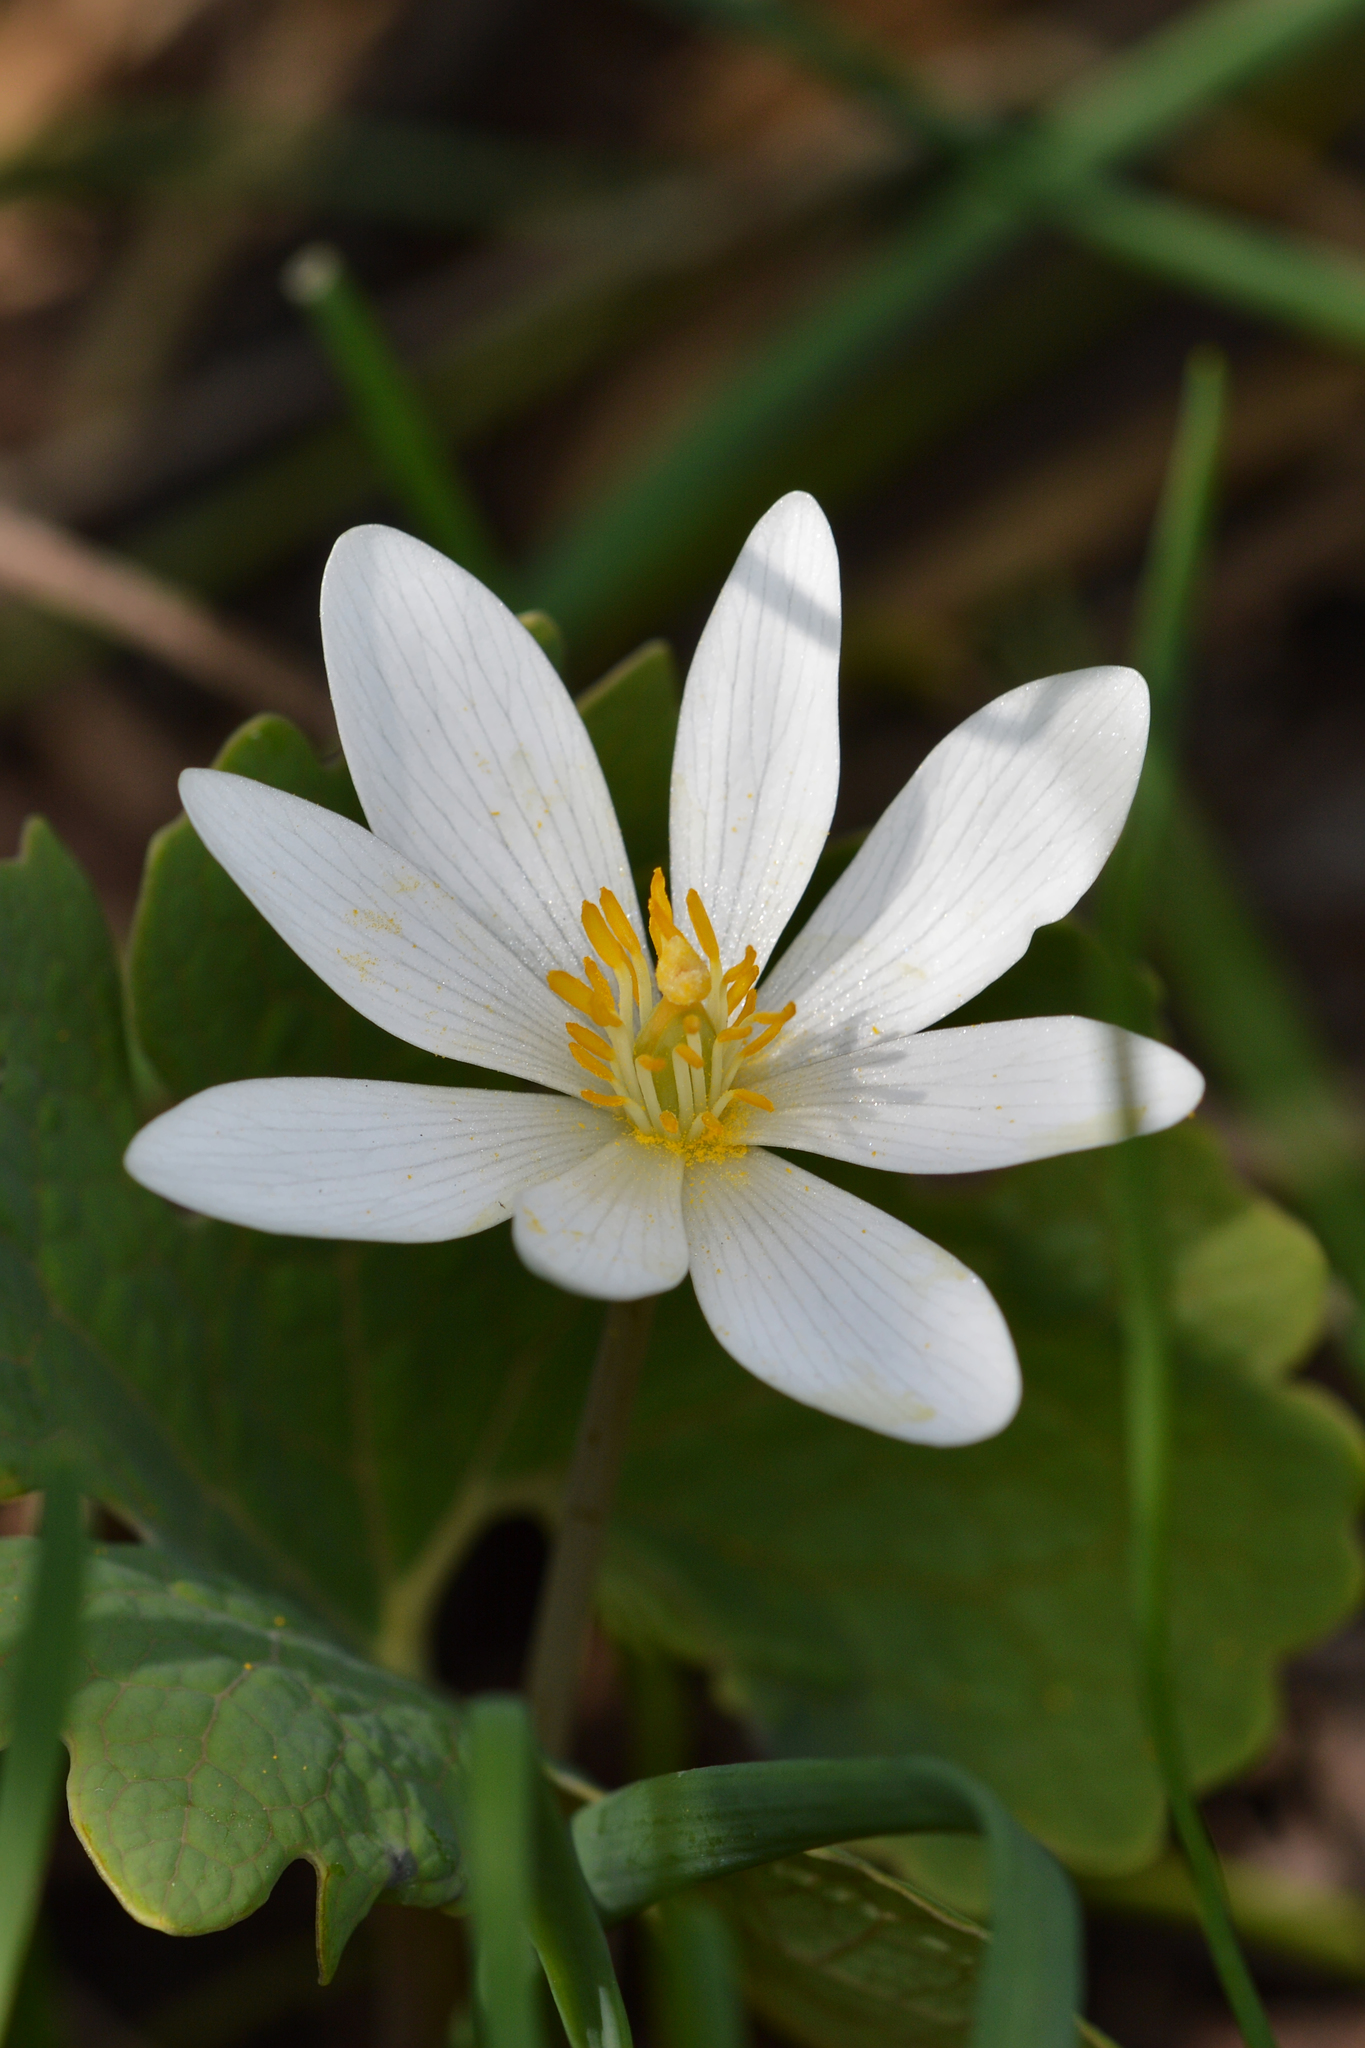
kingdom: Plantae
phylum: Tracheophyta
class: Magnoliopsida
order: Ranunculales
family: Papaveraceae
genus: Sanguinaria
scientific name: Sanguinaria canadensis
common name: Bloodroot
